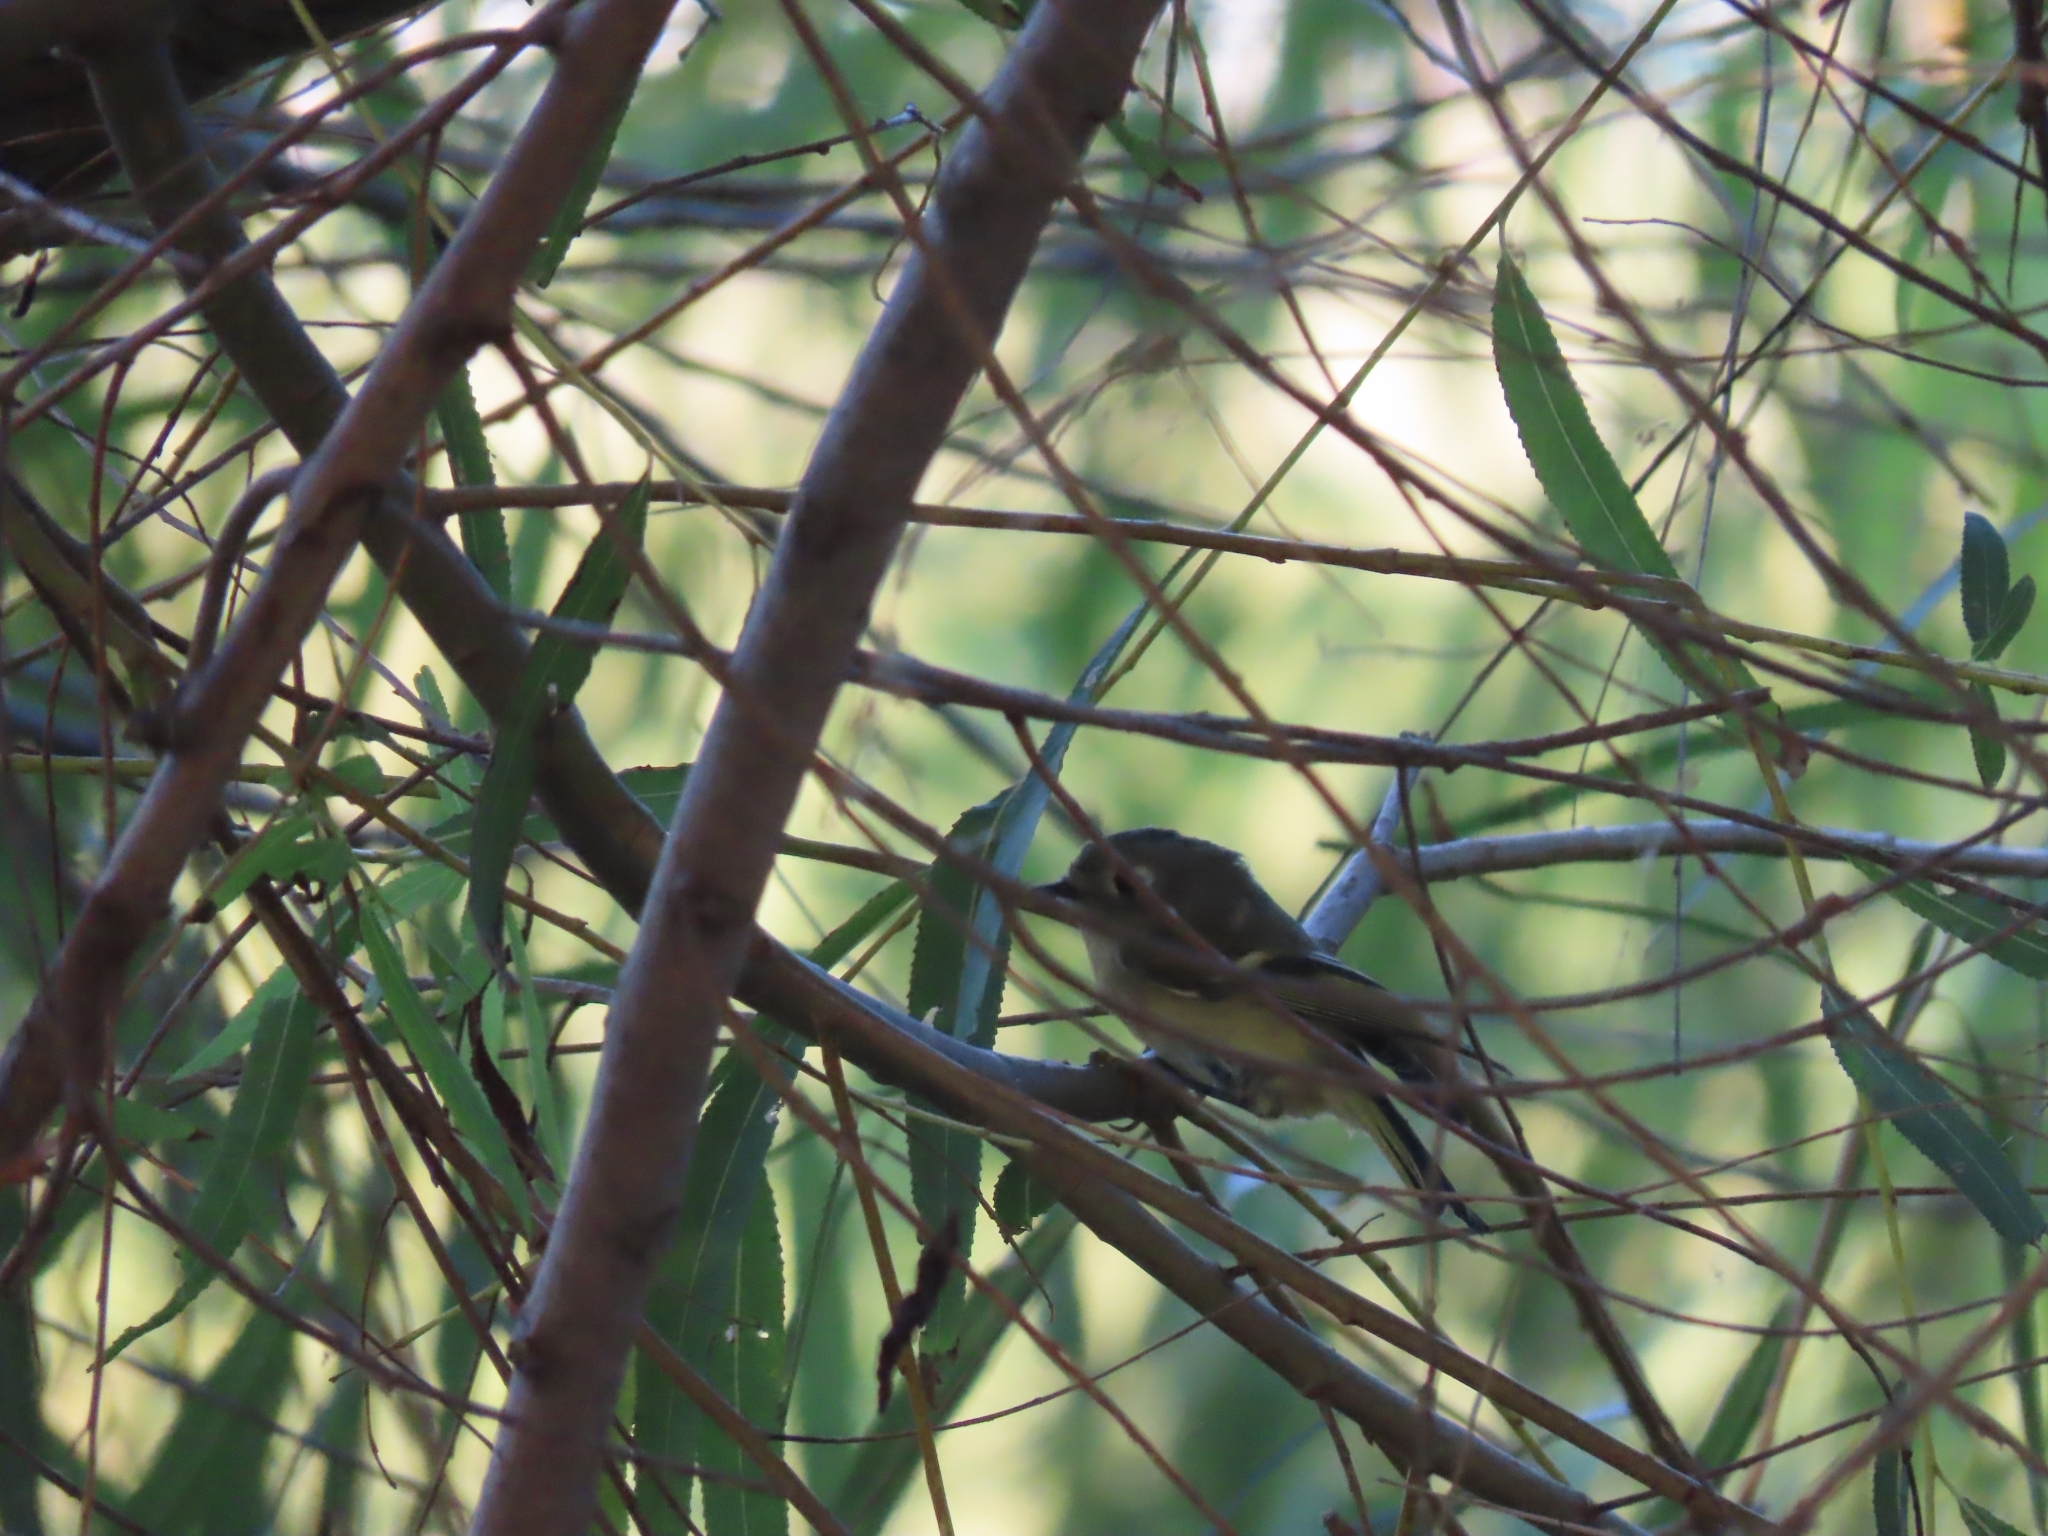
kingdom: Animalia
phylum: Chordata
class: Aves
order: Passeriformes
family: Regulidae
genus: Regulus
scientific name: Regulus calendula
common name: Ruby-crowned kinglet
